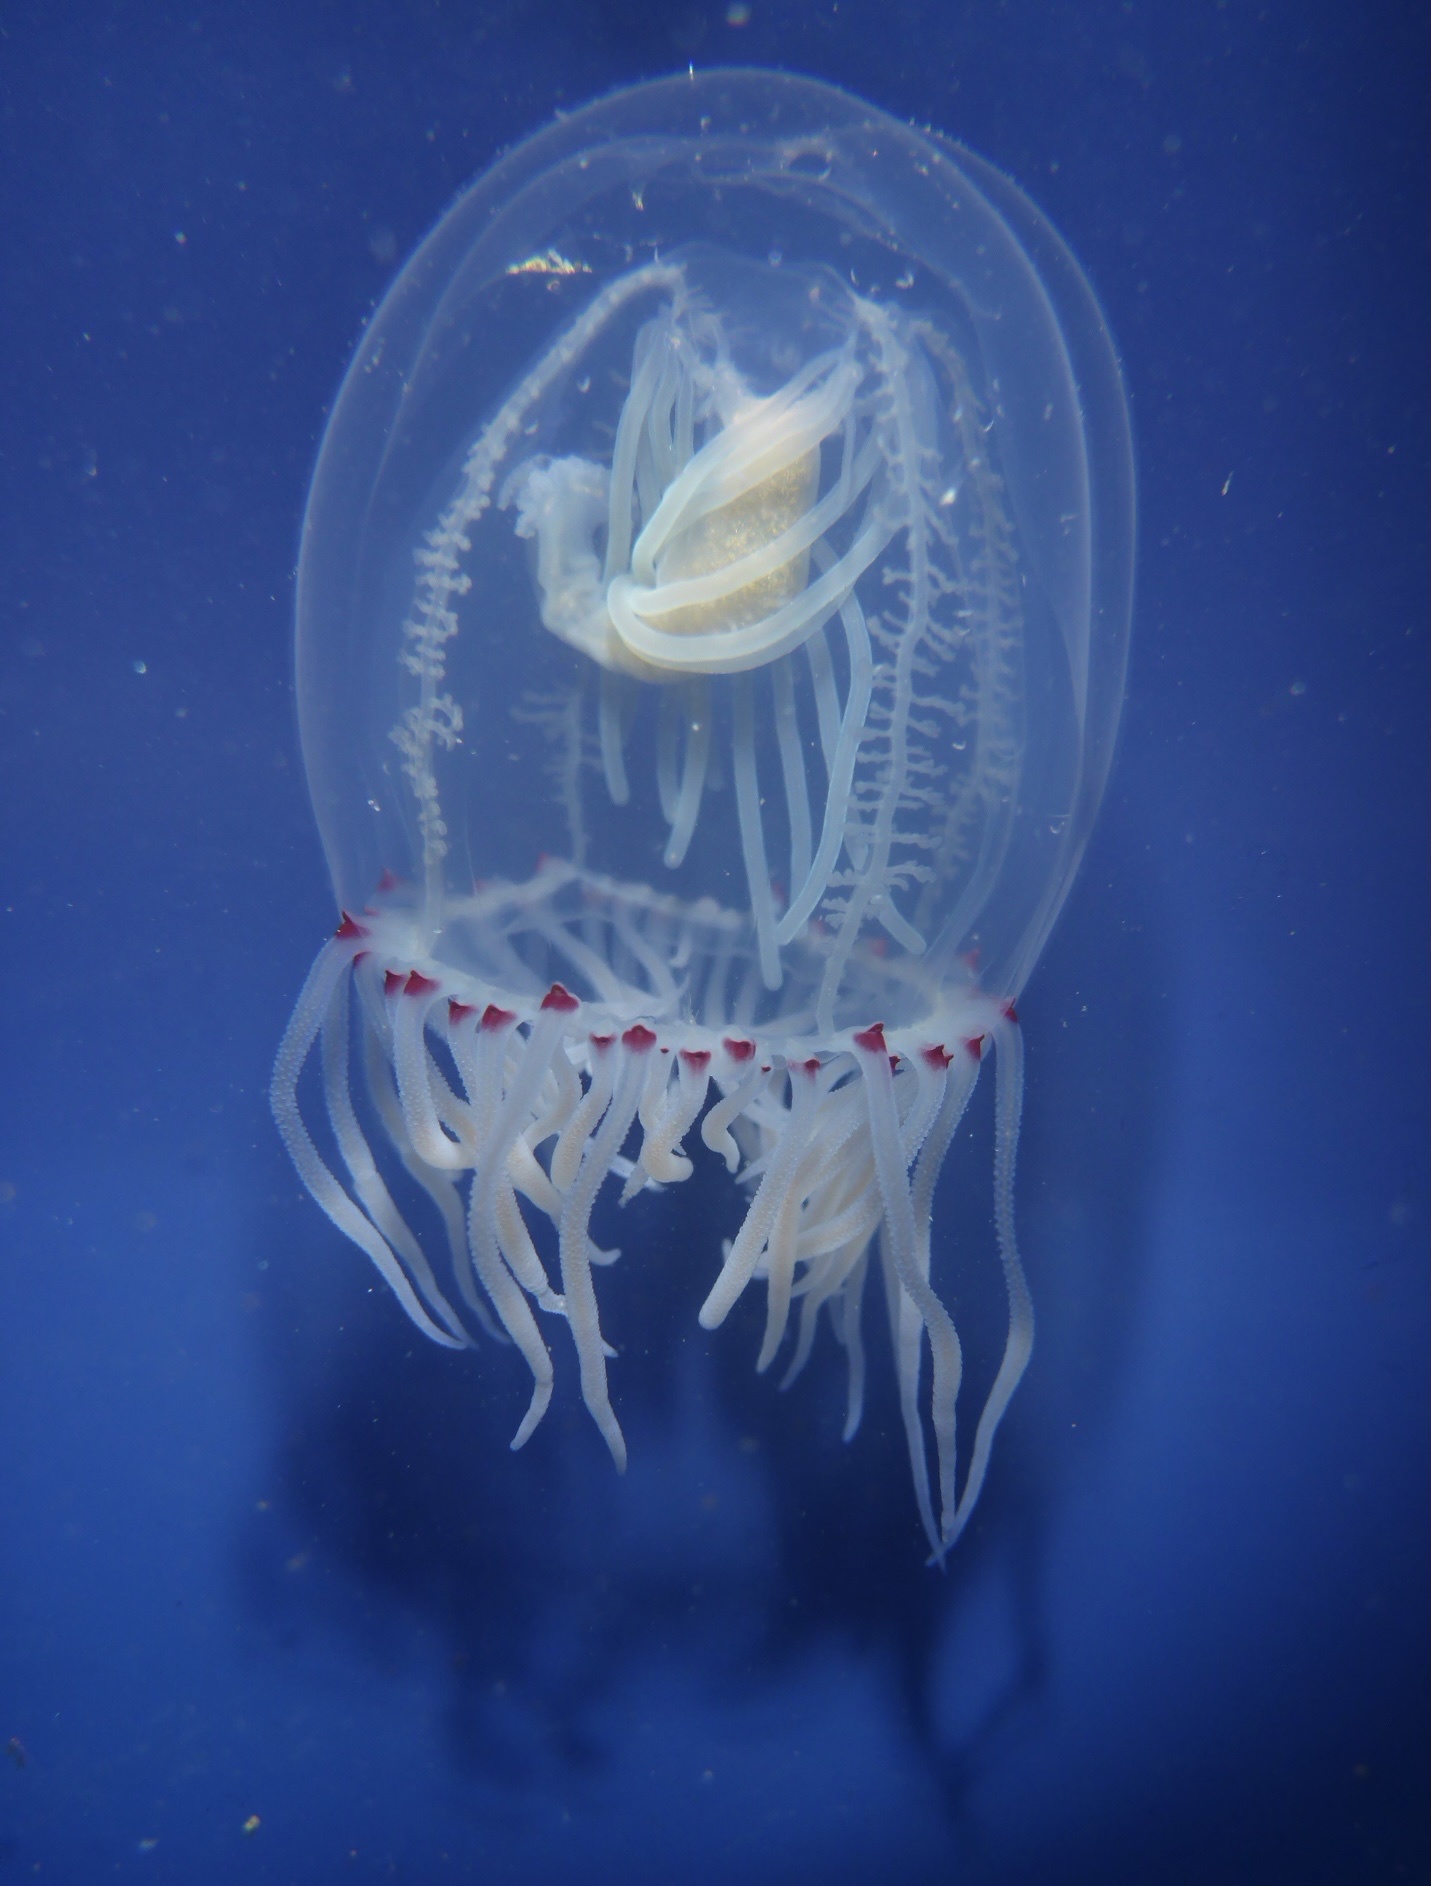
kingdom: Animalia
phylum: Cnidaria
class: Hydrozoa
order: Anthoathecata
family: Corynidae
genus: Polyorchis
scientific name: Polyorchis penicillatus
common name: Penicillate jellyfish
